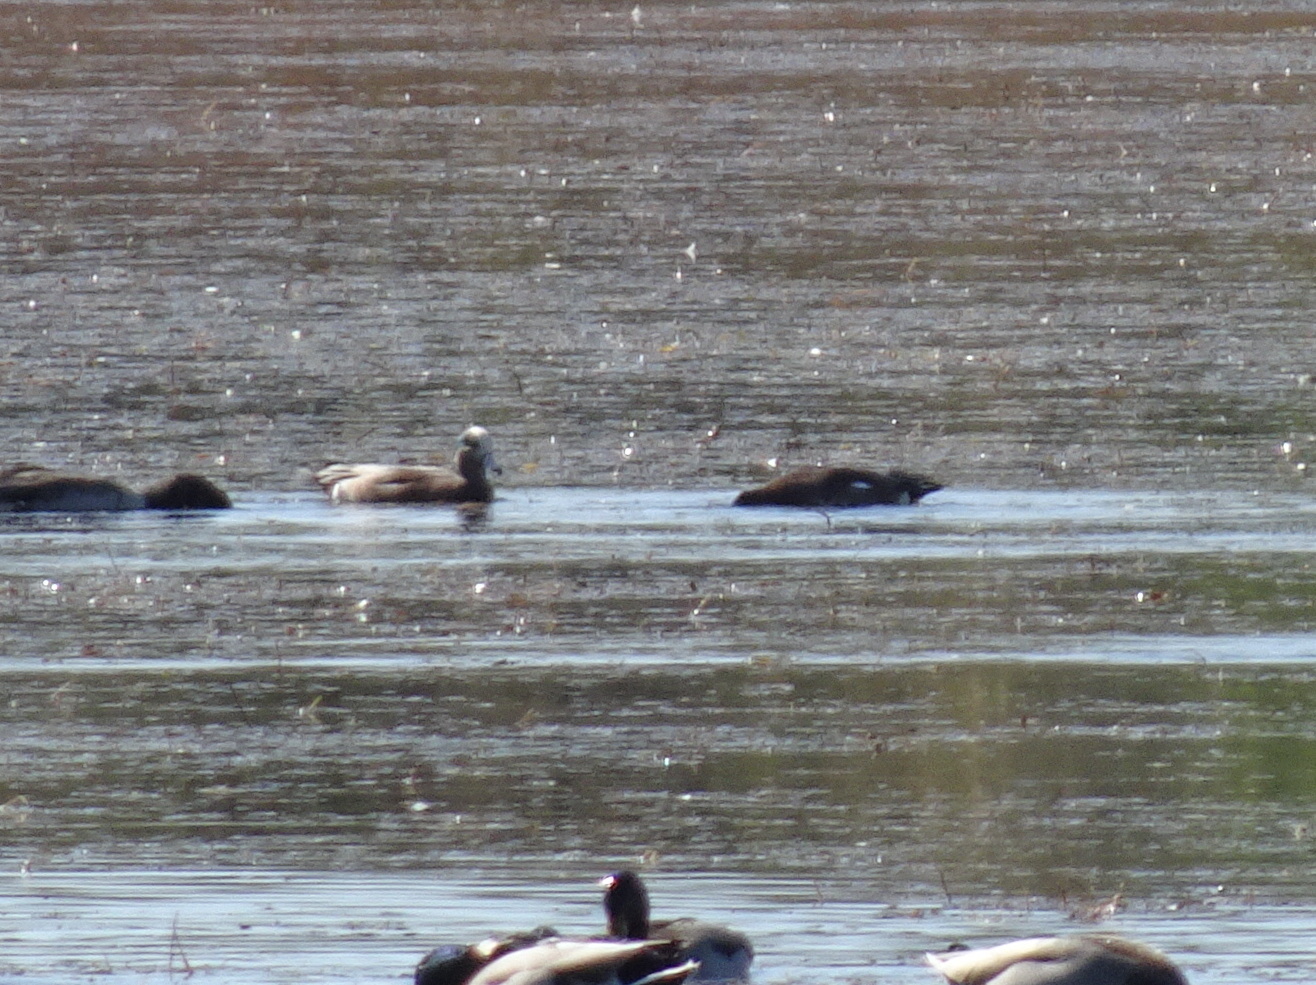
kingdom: Animalia
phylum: Chordata
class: Aves
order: Anseriformes
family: Anatidae
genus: Mareca
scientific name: Mareca americana
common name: American wigeon
